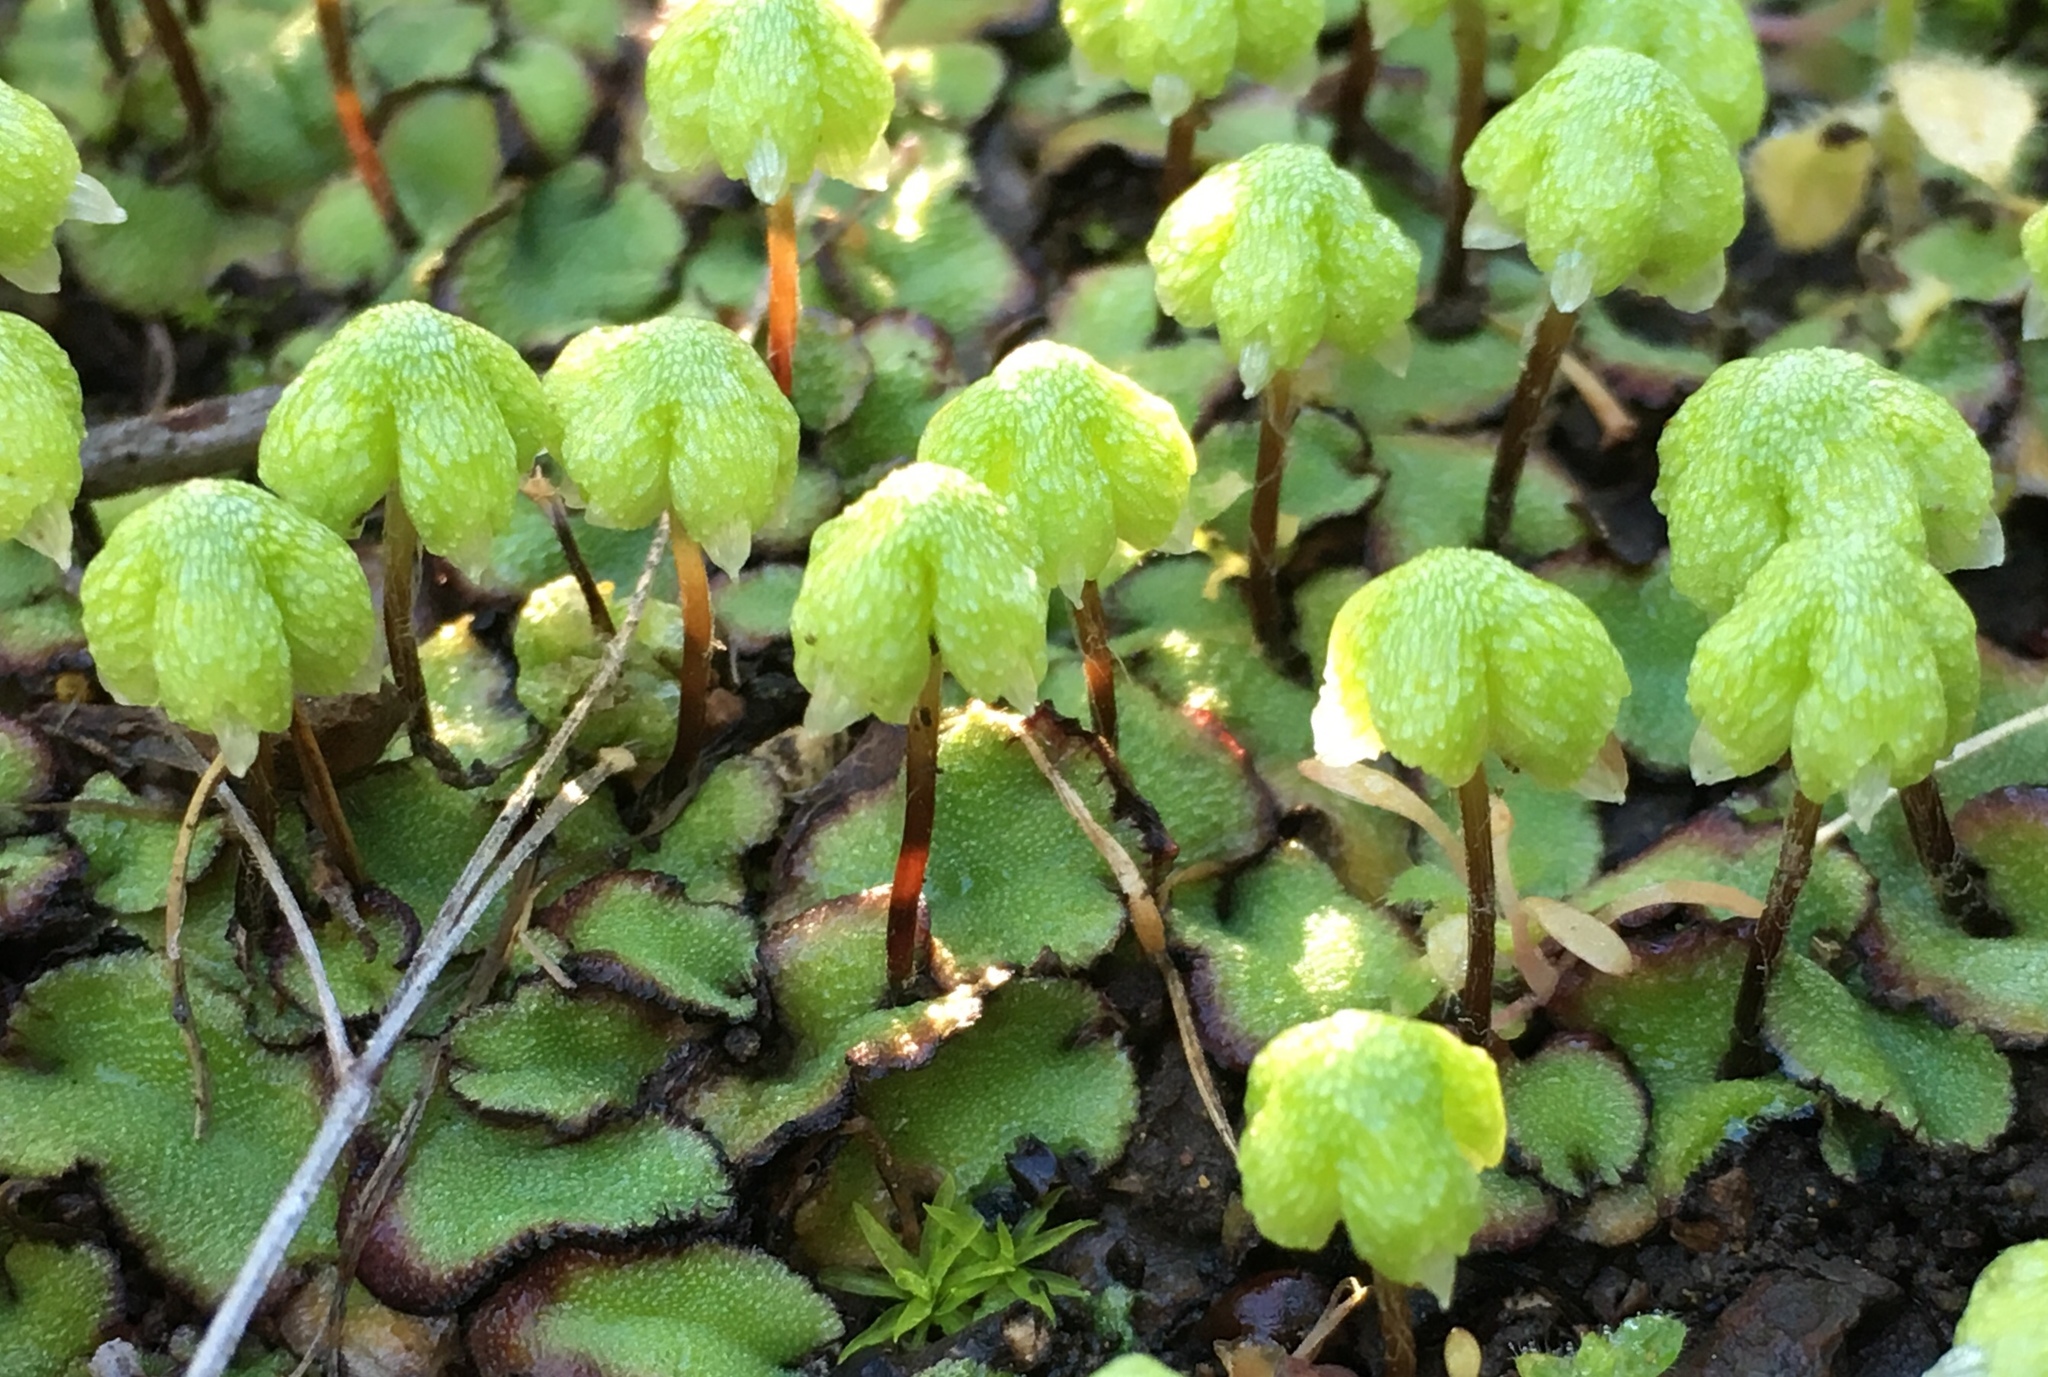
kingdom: Plantae
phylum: Marchantiophyta
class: Marchantiopsida
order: Marchantiales
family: Aytoniaceae
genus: Asterella
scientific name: Asterella californica
